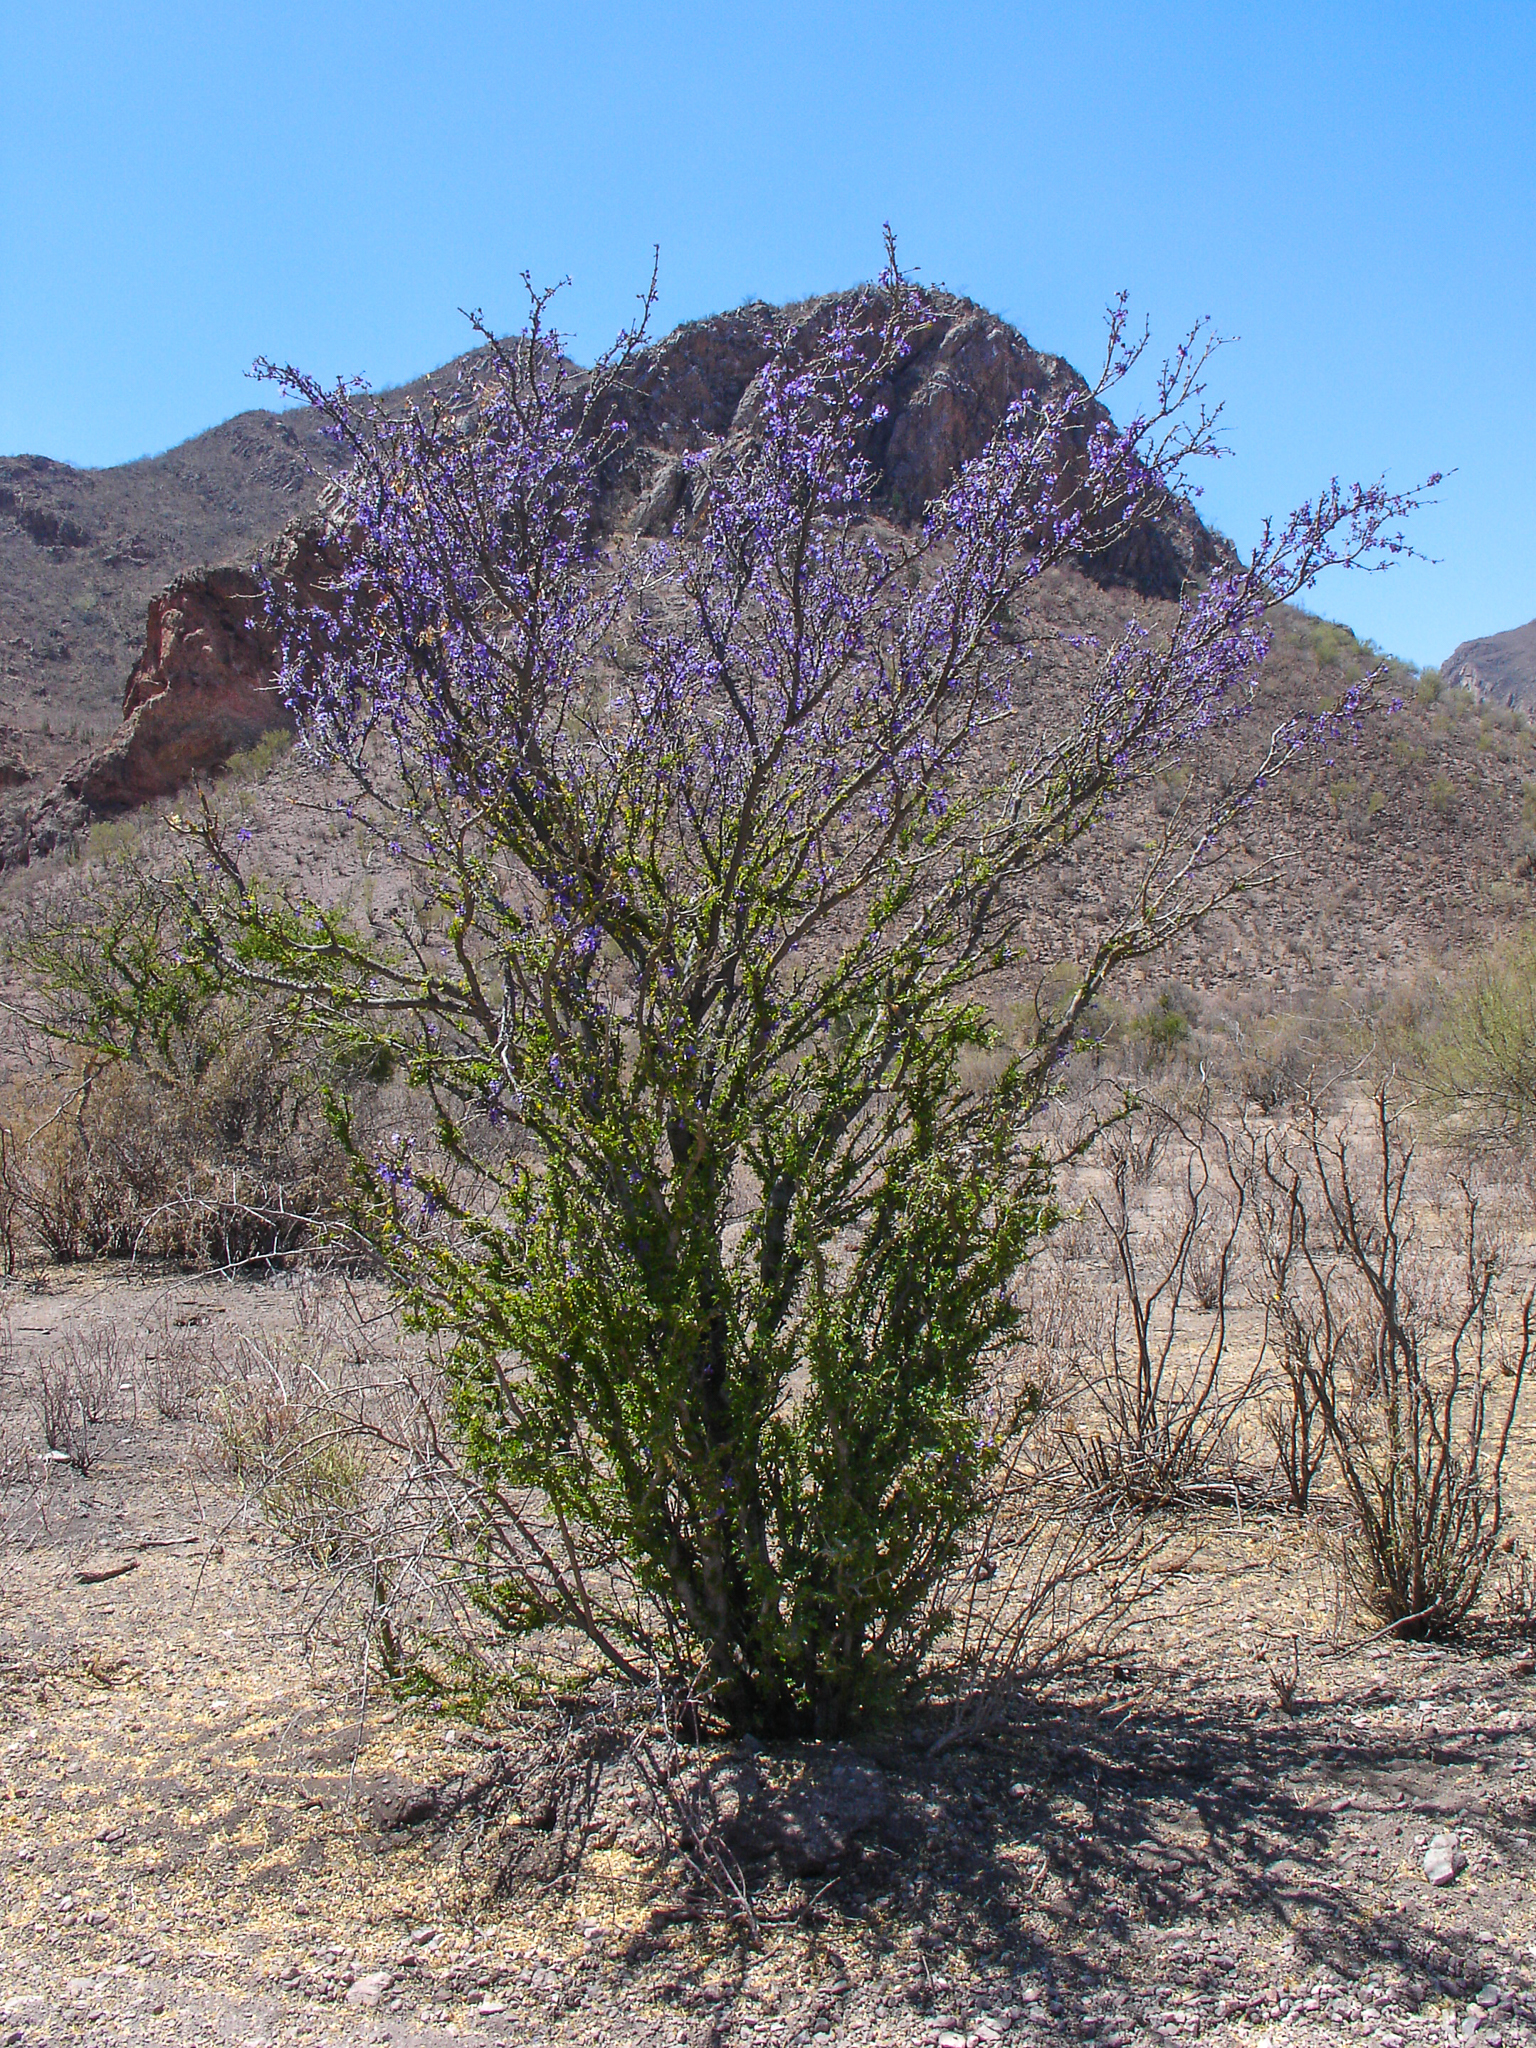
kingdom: Plantae
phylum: Tracheophyta
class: Magnoliopsida
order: Zygophyllales
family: Zygophyllaceae
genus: Guaiacum
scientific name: Guaiacum coulteri
